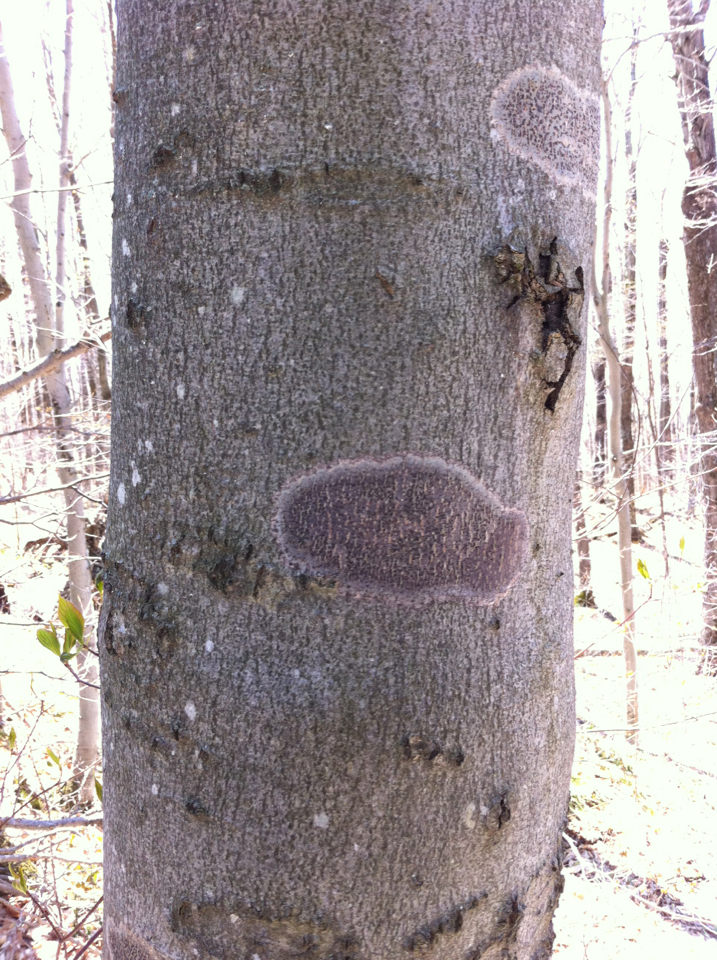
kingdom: Plantae
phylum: Tracheophyta
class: Magnoliopsida
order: Fagales
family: Fagaceae
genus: Fagus
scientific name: Fagus grandifolia
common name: American beech
